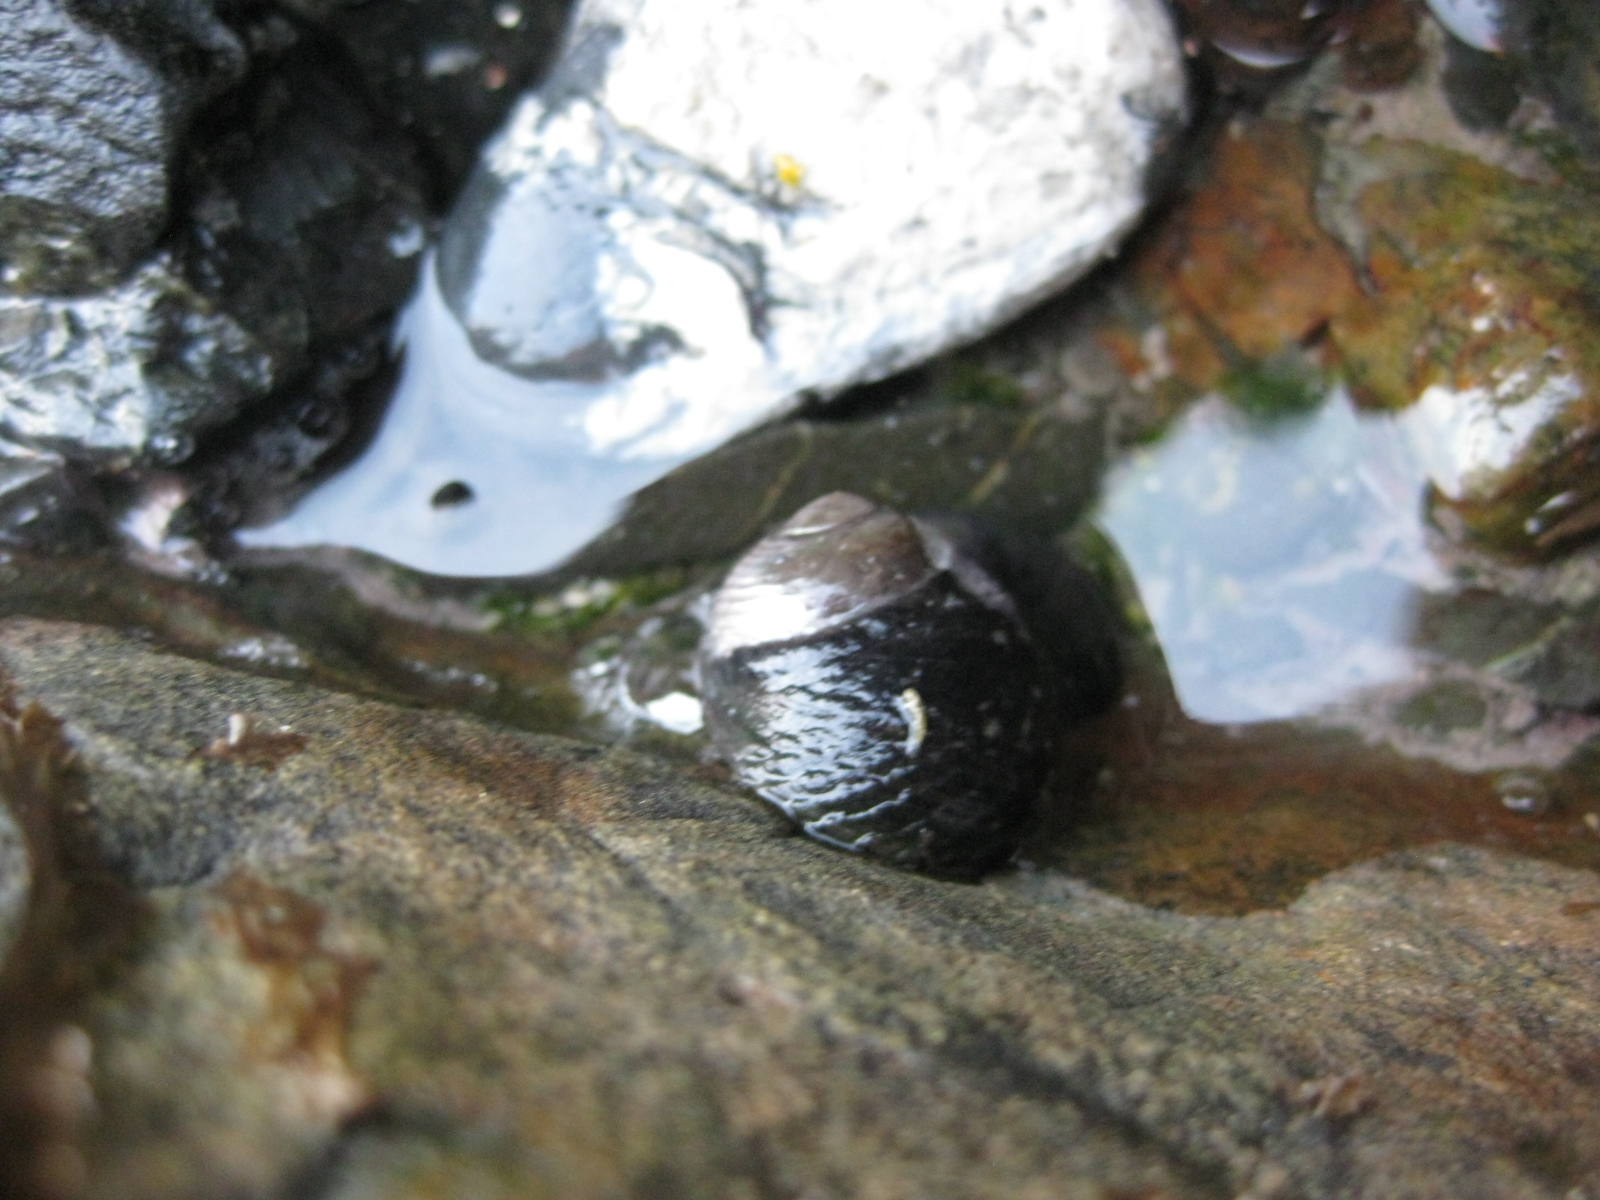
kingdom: Animalia
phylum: Mollusca
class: Gastropoda
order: Trochida
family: Trochidae
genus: Diloma
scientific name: Diloma zelandicum
